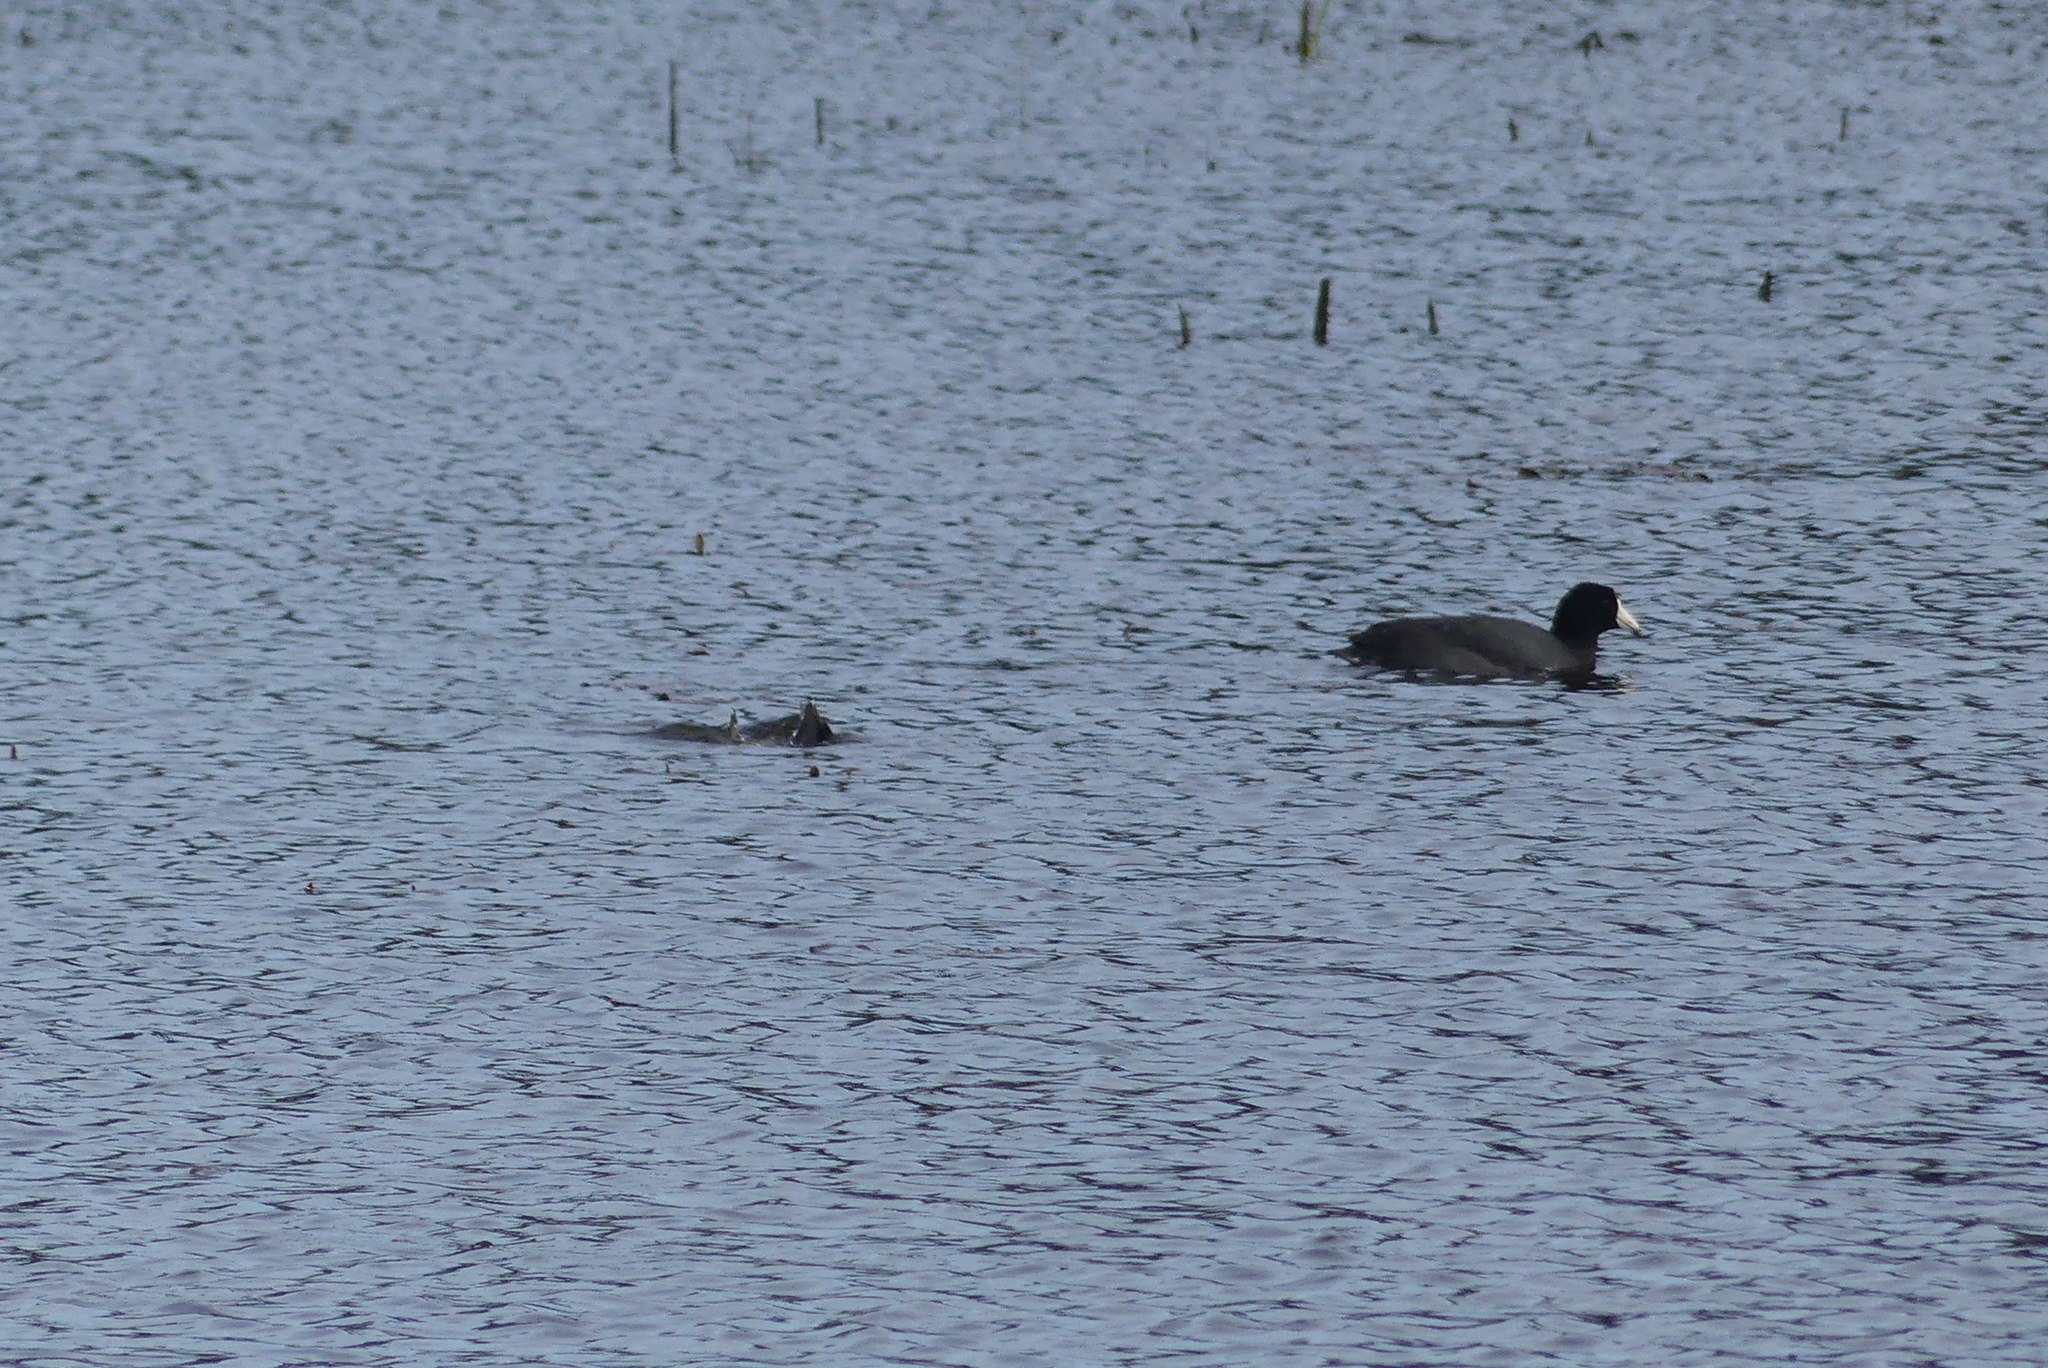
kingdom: Animalia
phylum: Chordata
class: Aves
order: Gruiformes
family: Rallidae
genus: Fulica
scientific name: Fulica americana
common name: American coot
